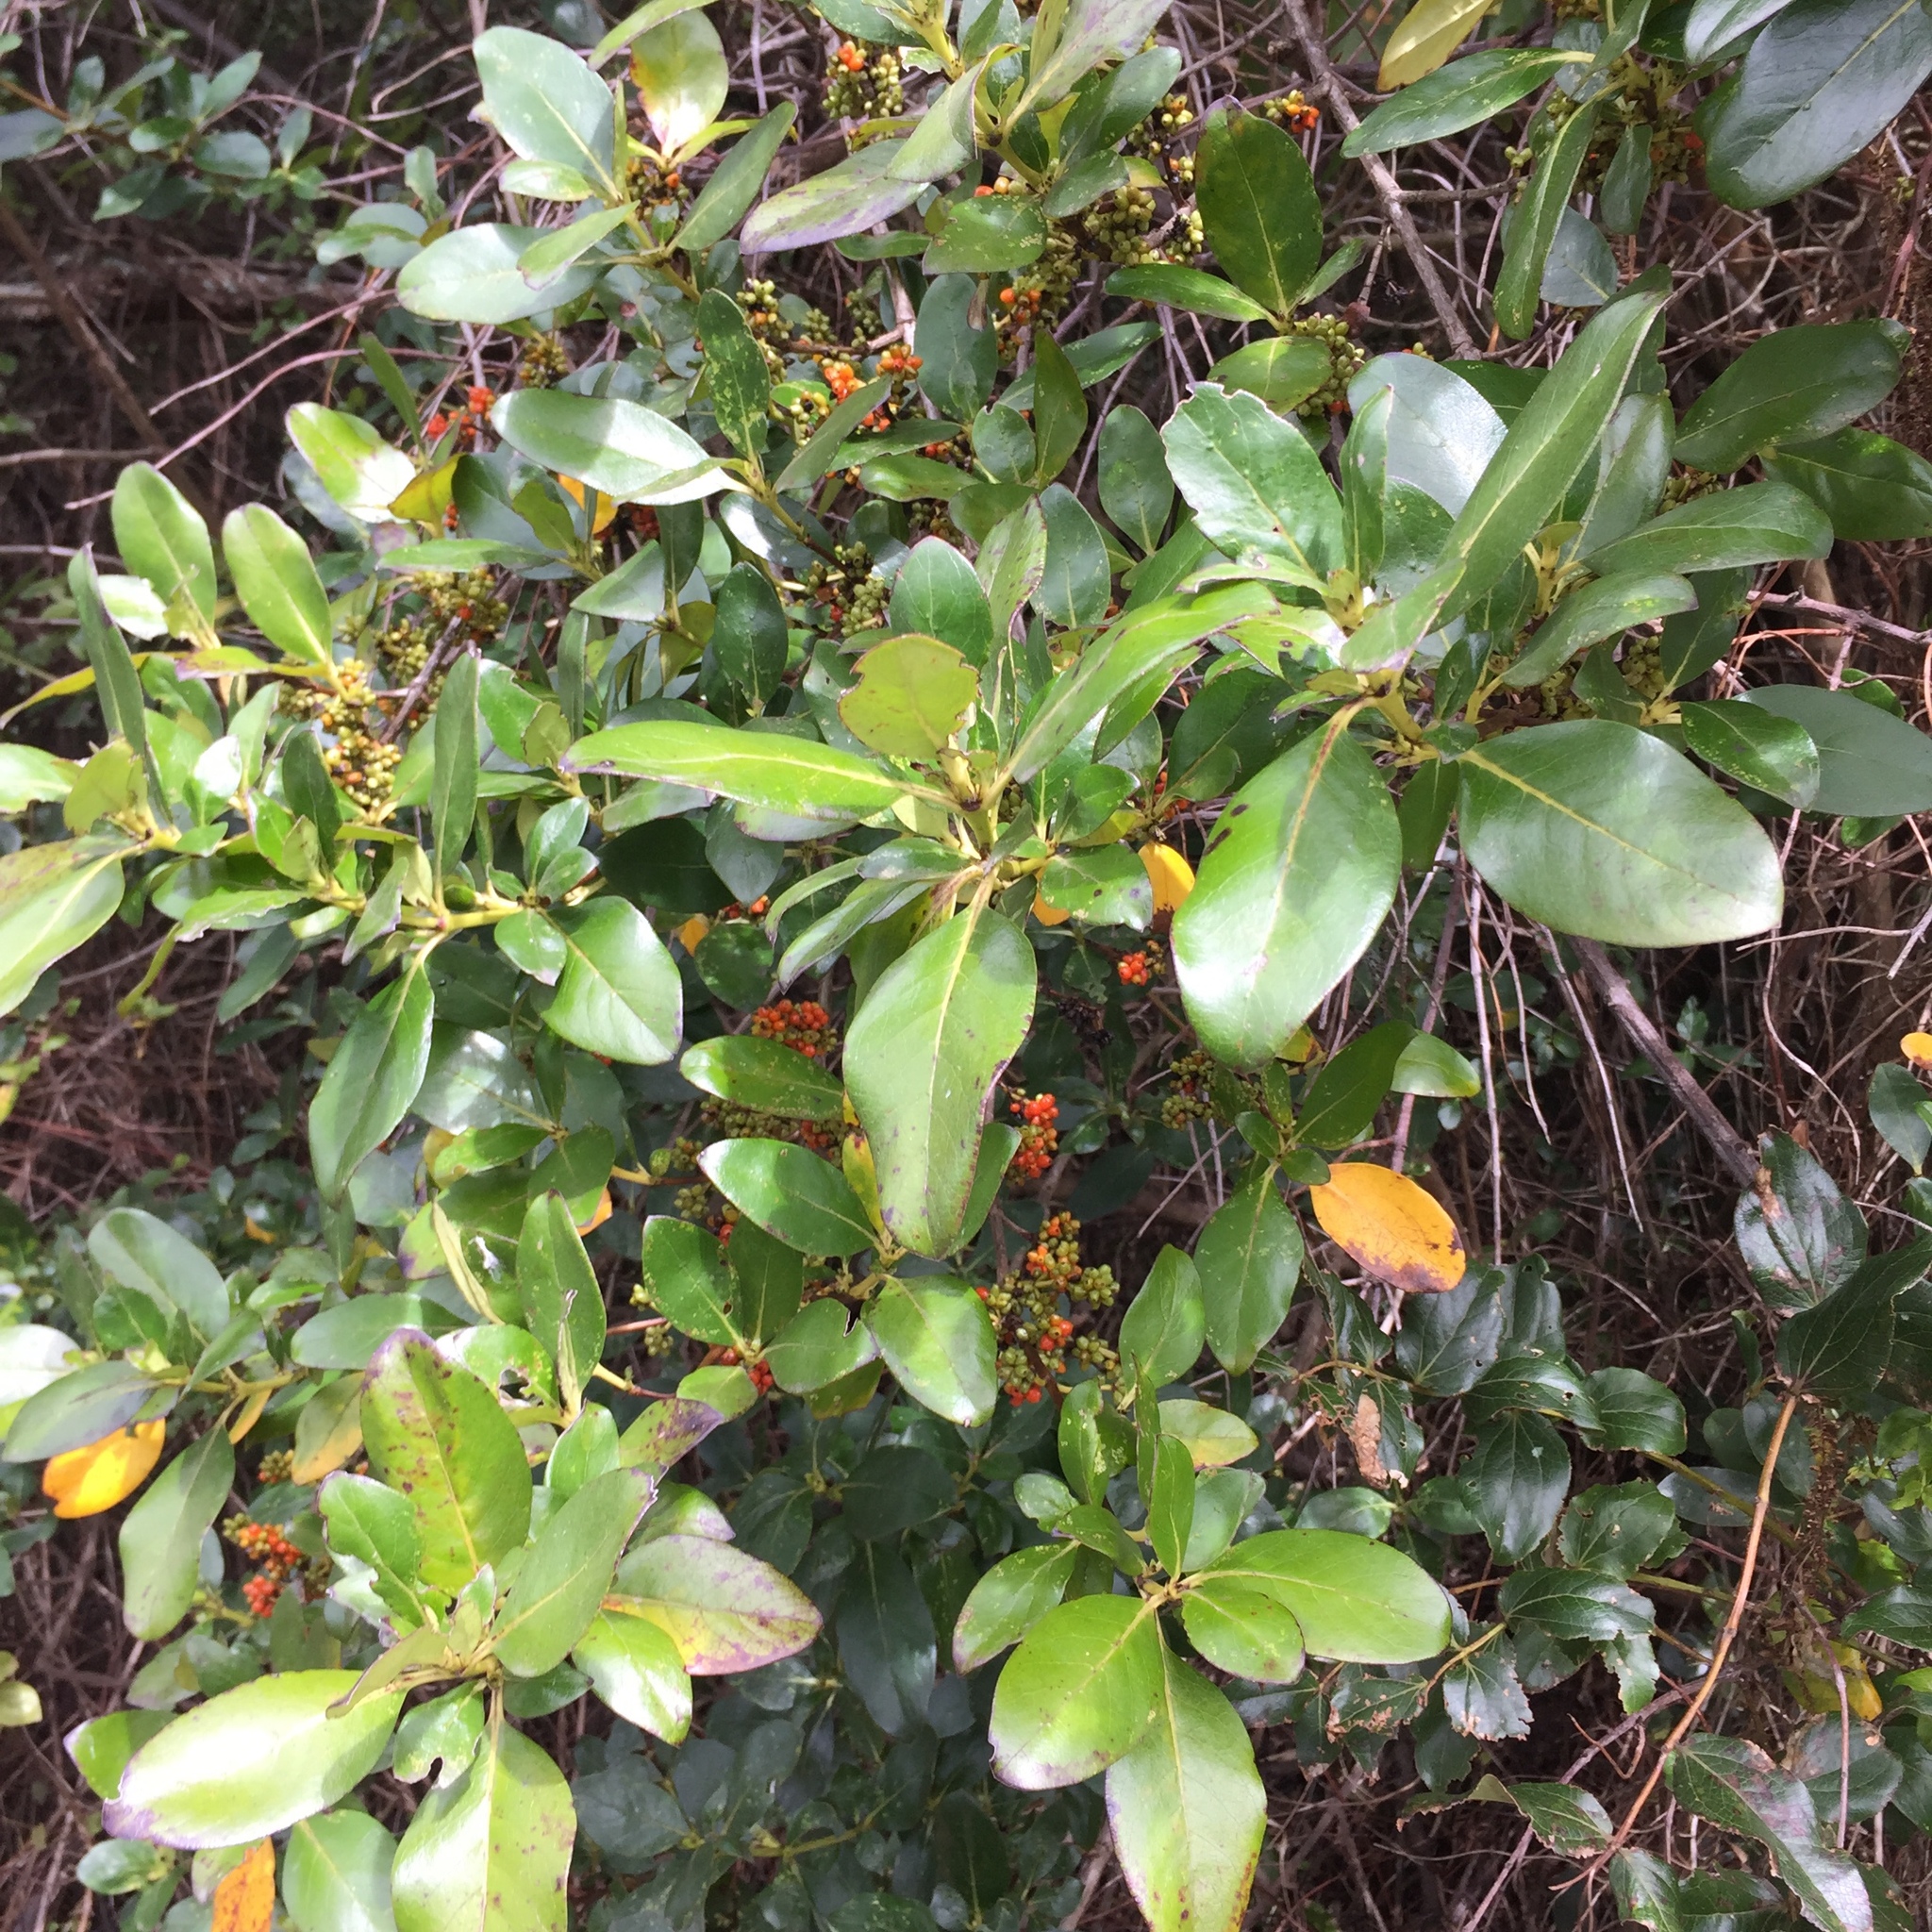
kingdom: Plantae
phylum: Tracheophyta
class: Magnoliopsida
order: Gentianales
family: Rubiaceae
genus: Coprosma
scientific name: Coprosma robusta
